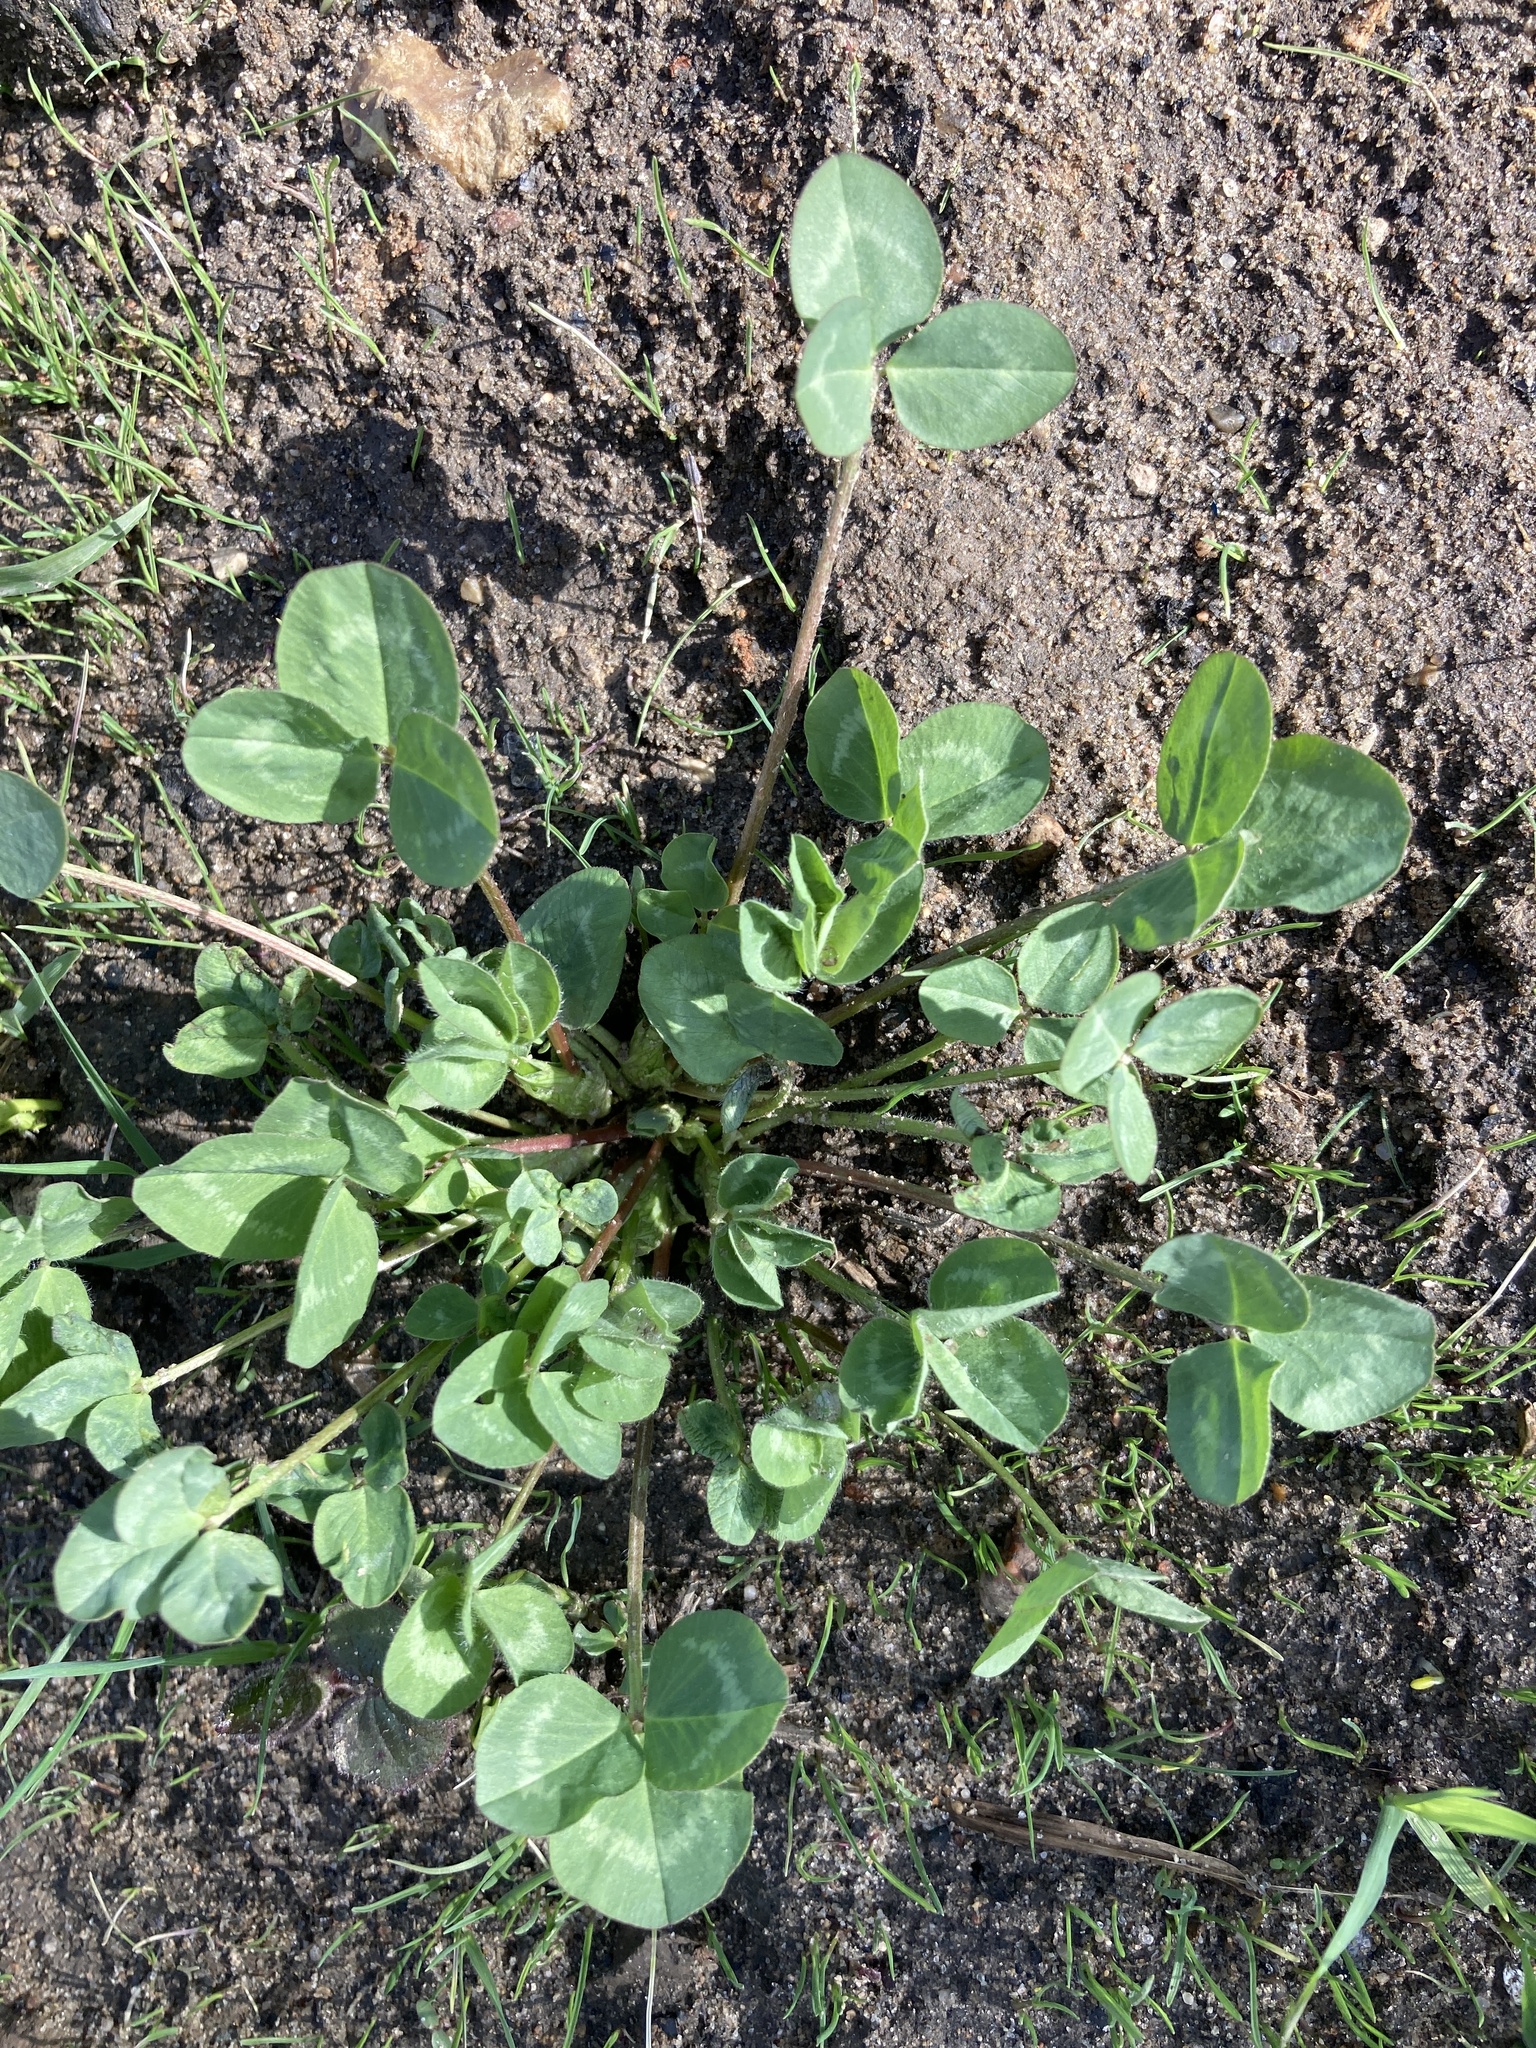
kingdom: Plantae
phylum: Tracheophyta
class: Magnoliopsida
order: Fabales
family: Fabaceae
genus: Trifolium
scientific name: Trifolium pratense
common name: Red clover
